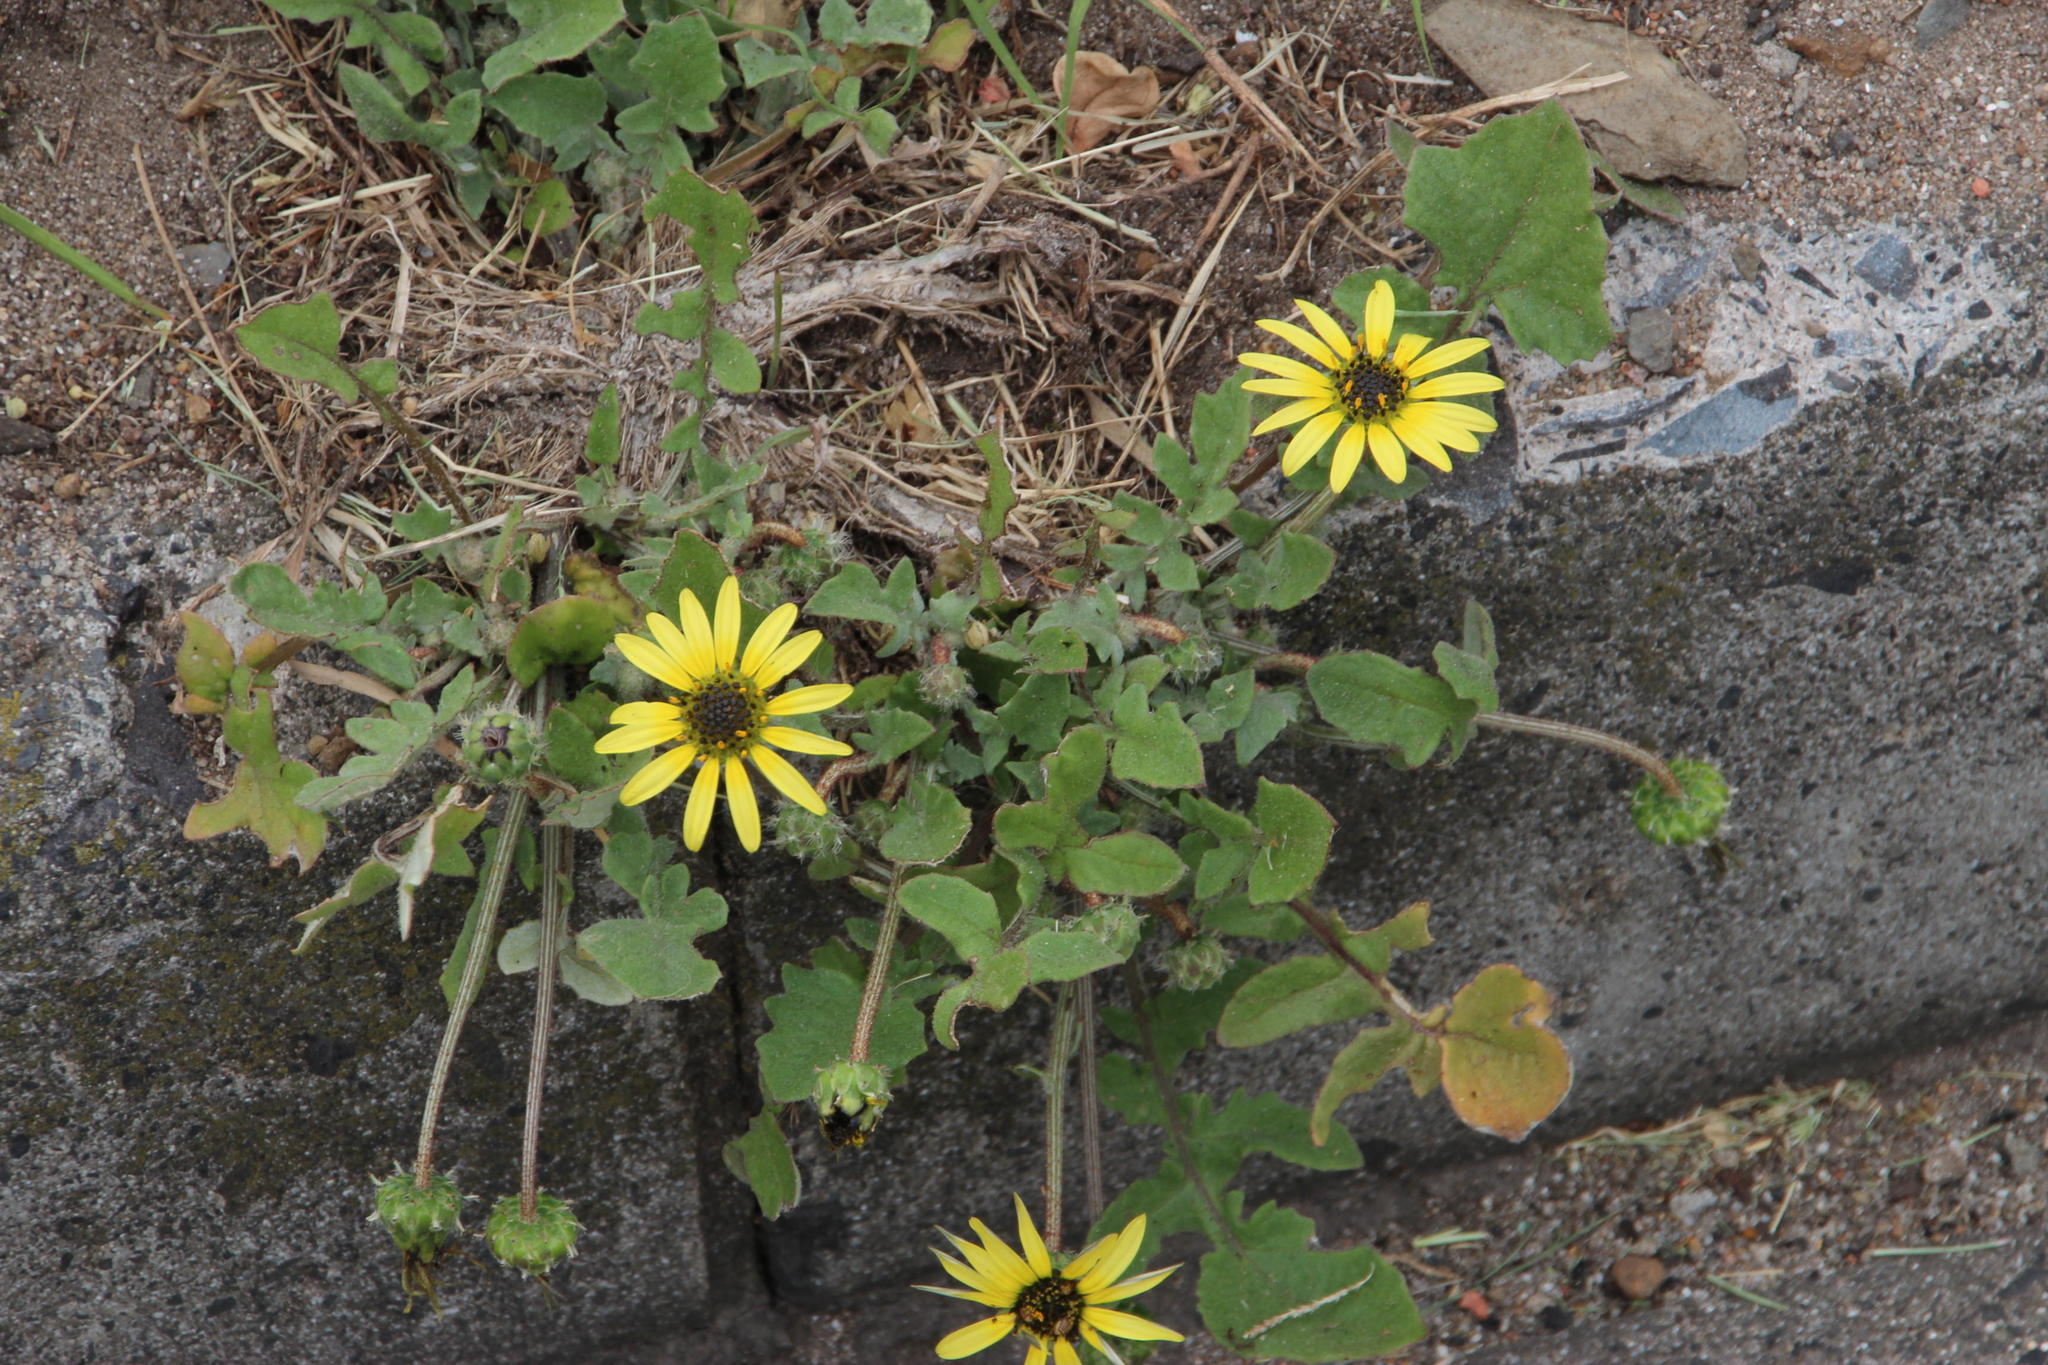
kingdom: Plantae
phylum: Tracheophyta
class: Magnoliopsida
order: Asterales
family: Asteraceae
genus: Arctotheca
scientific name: Arctotheca calendula
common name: Capeweed
